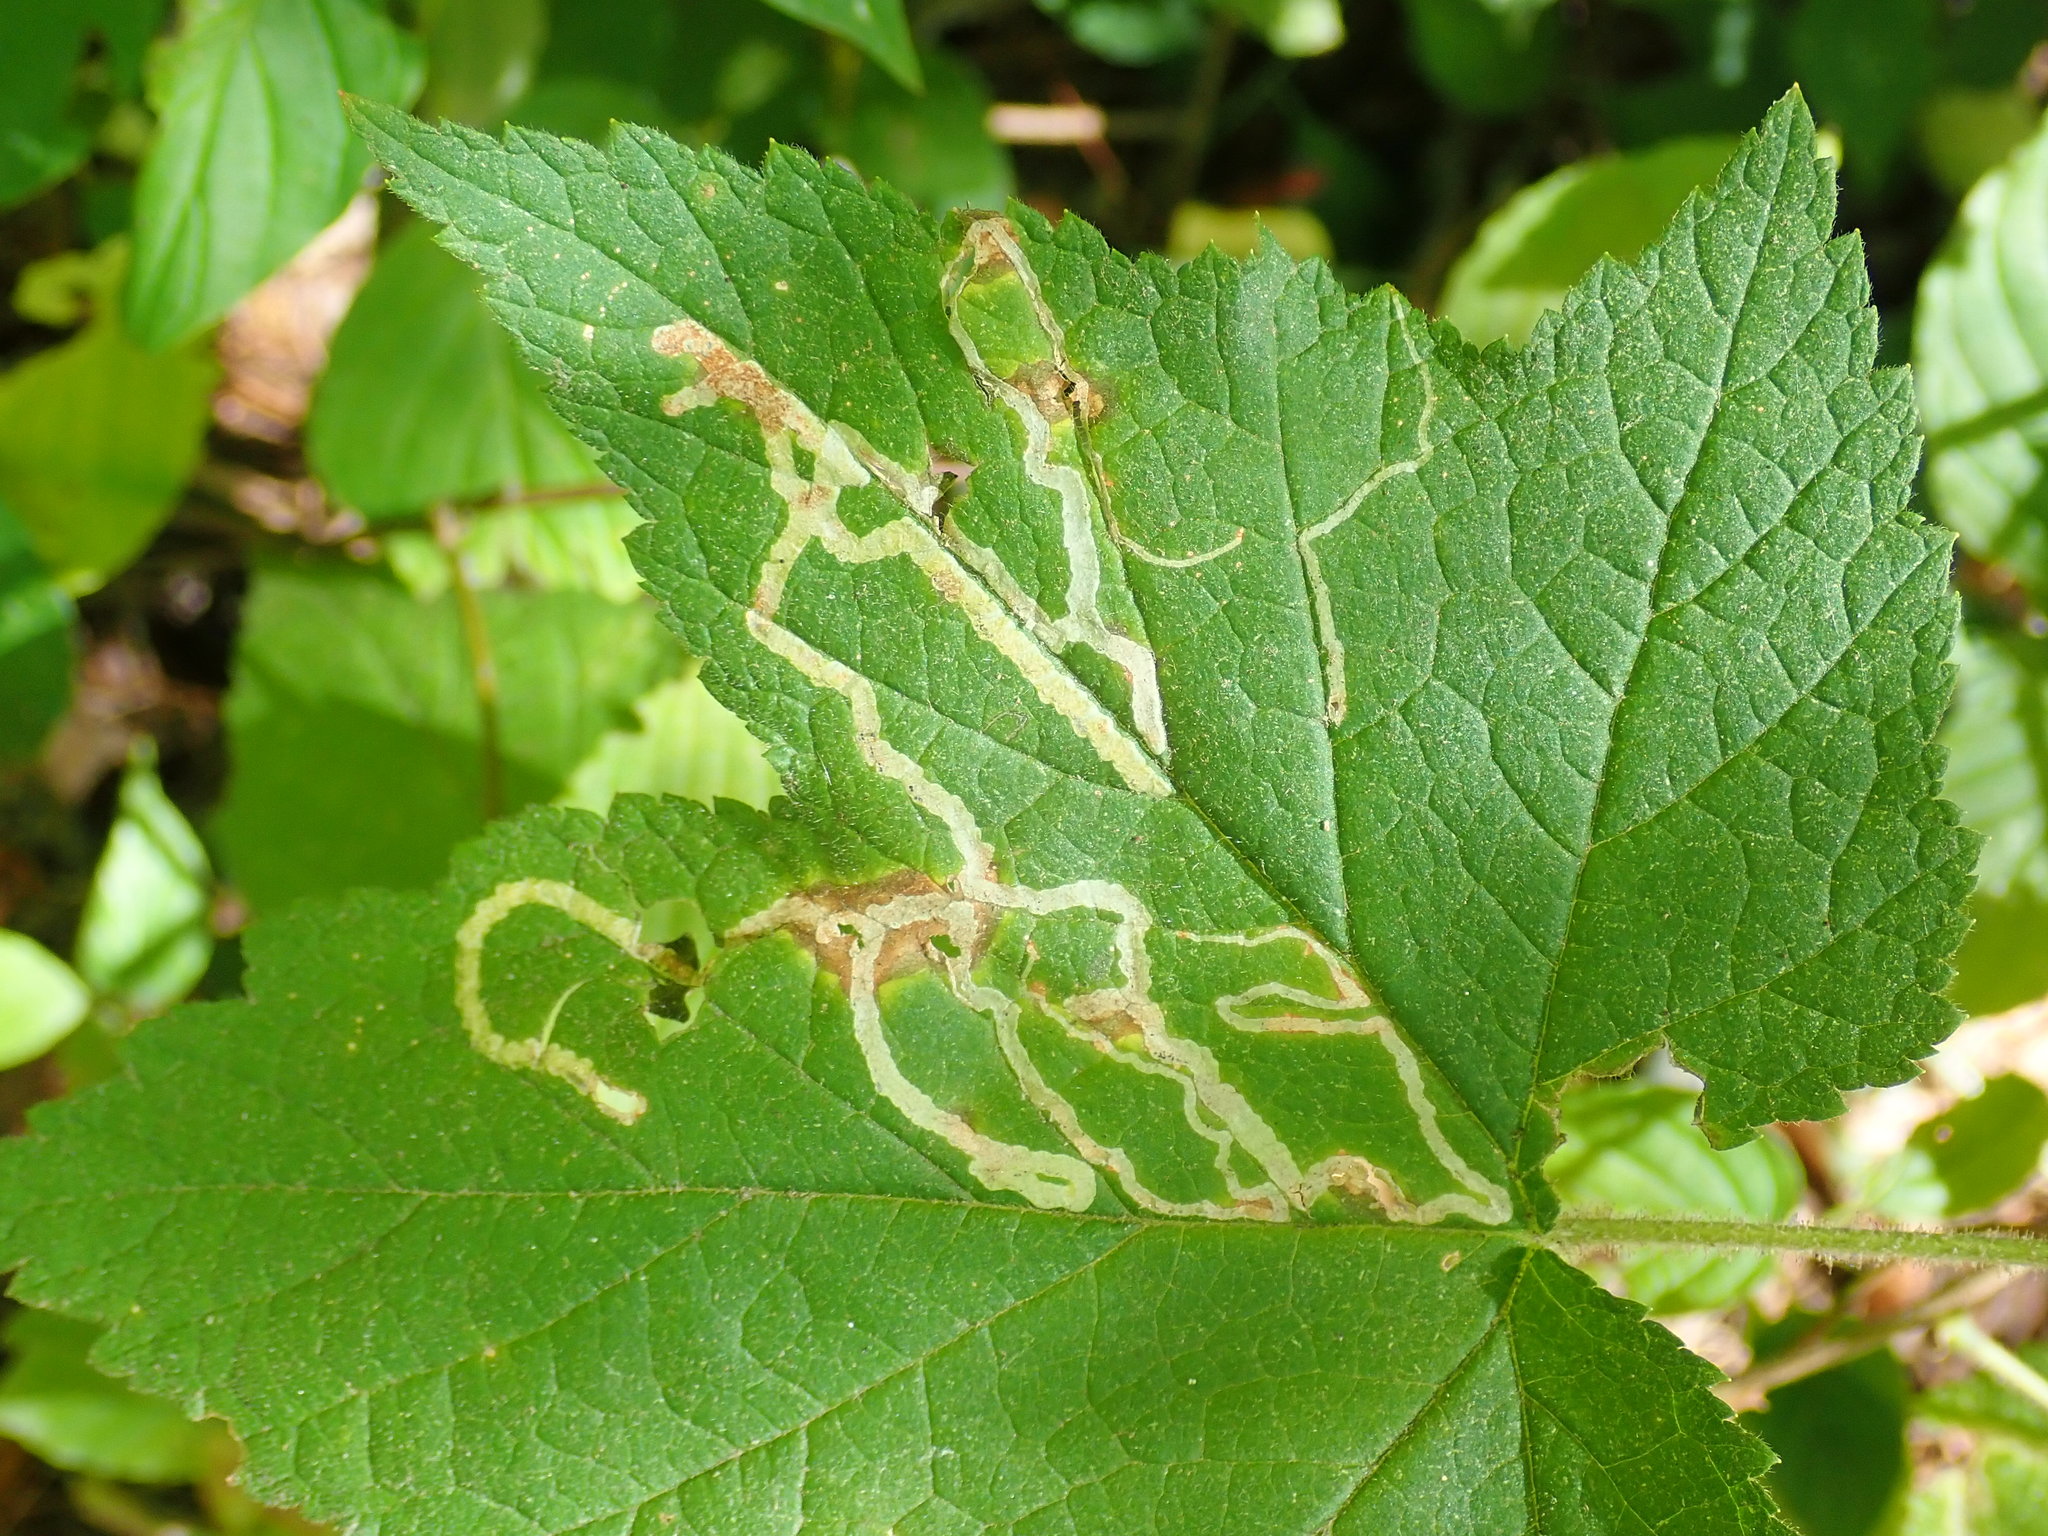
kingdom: Animalia
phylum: Arthropoda
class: Insecta
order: Diptera
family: Agromyzidae
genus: Agromyza
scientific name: Agromyza vockerothi
